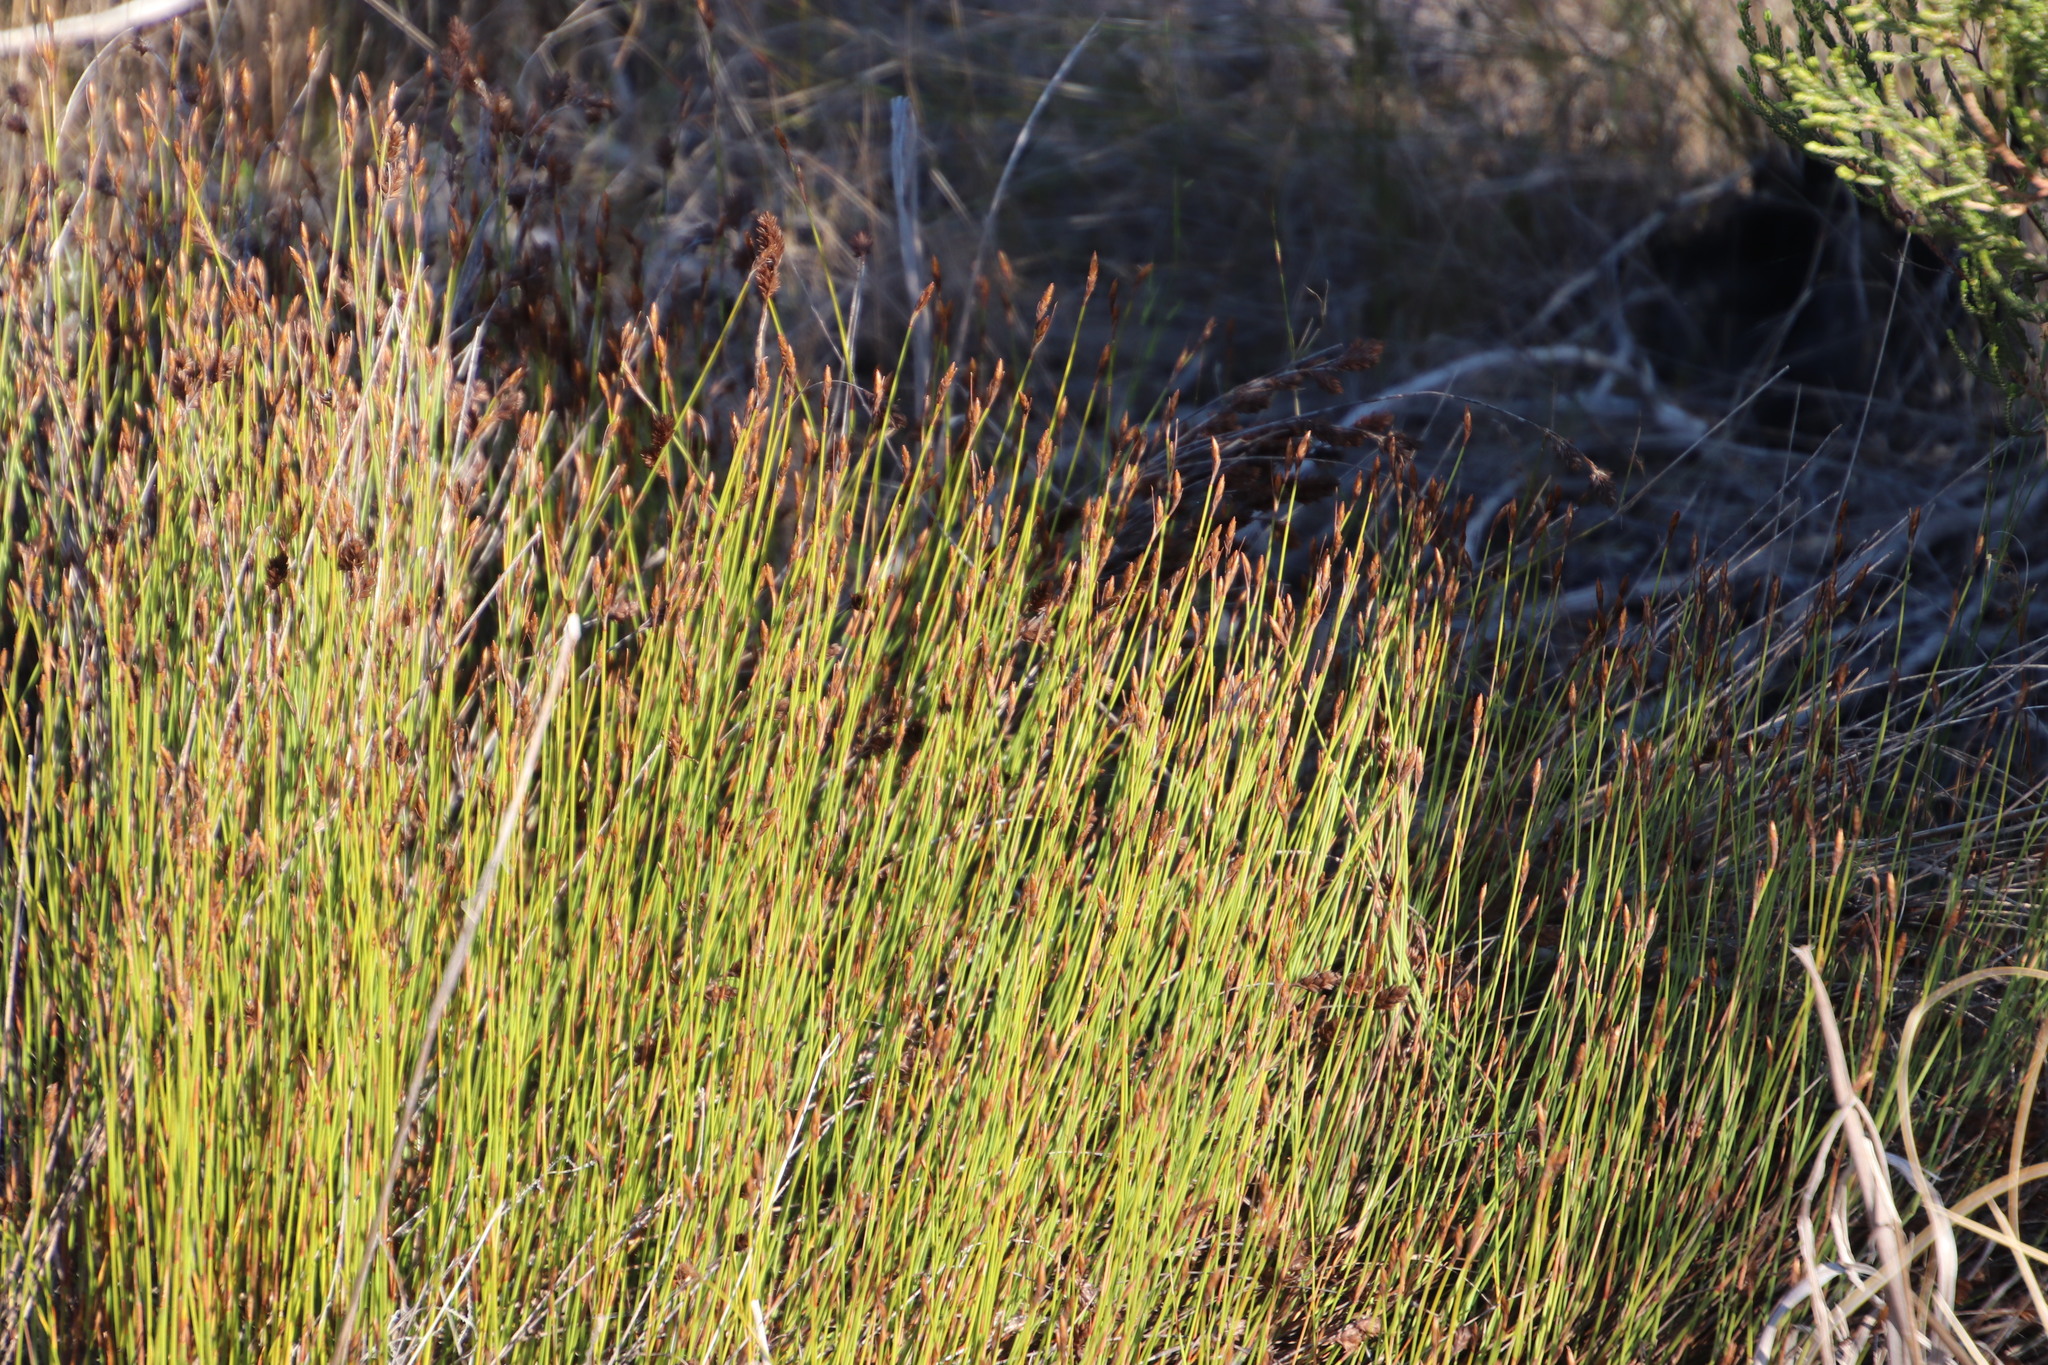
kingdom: Plantae
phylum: Tracheophyta
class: Liliopsida
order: Poales
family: Restionaceae
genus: Restio
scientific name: Restio capensis
